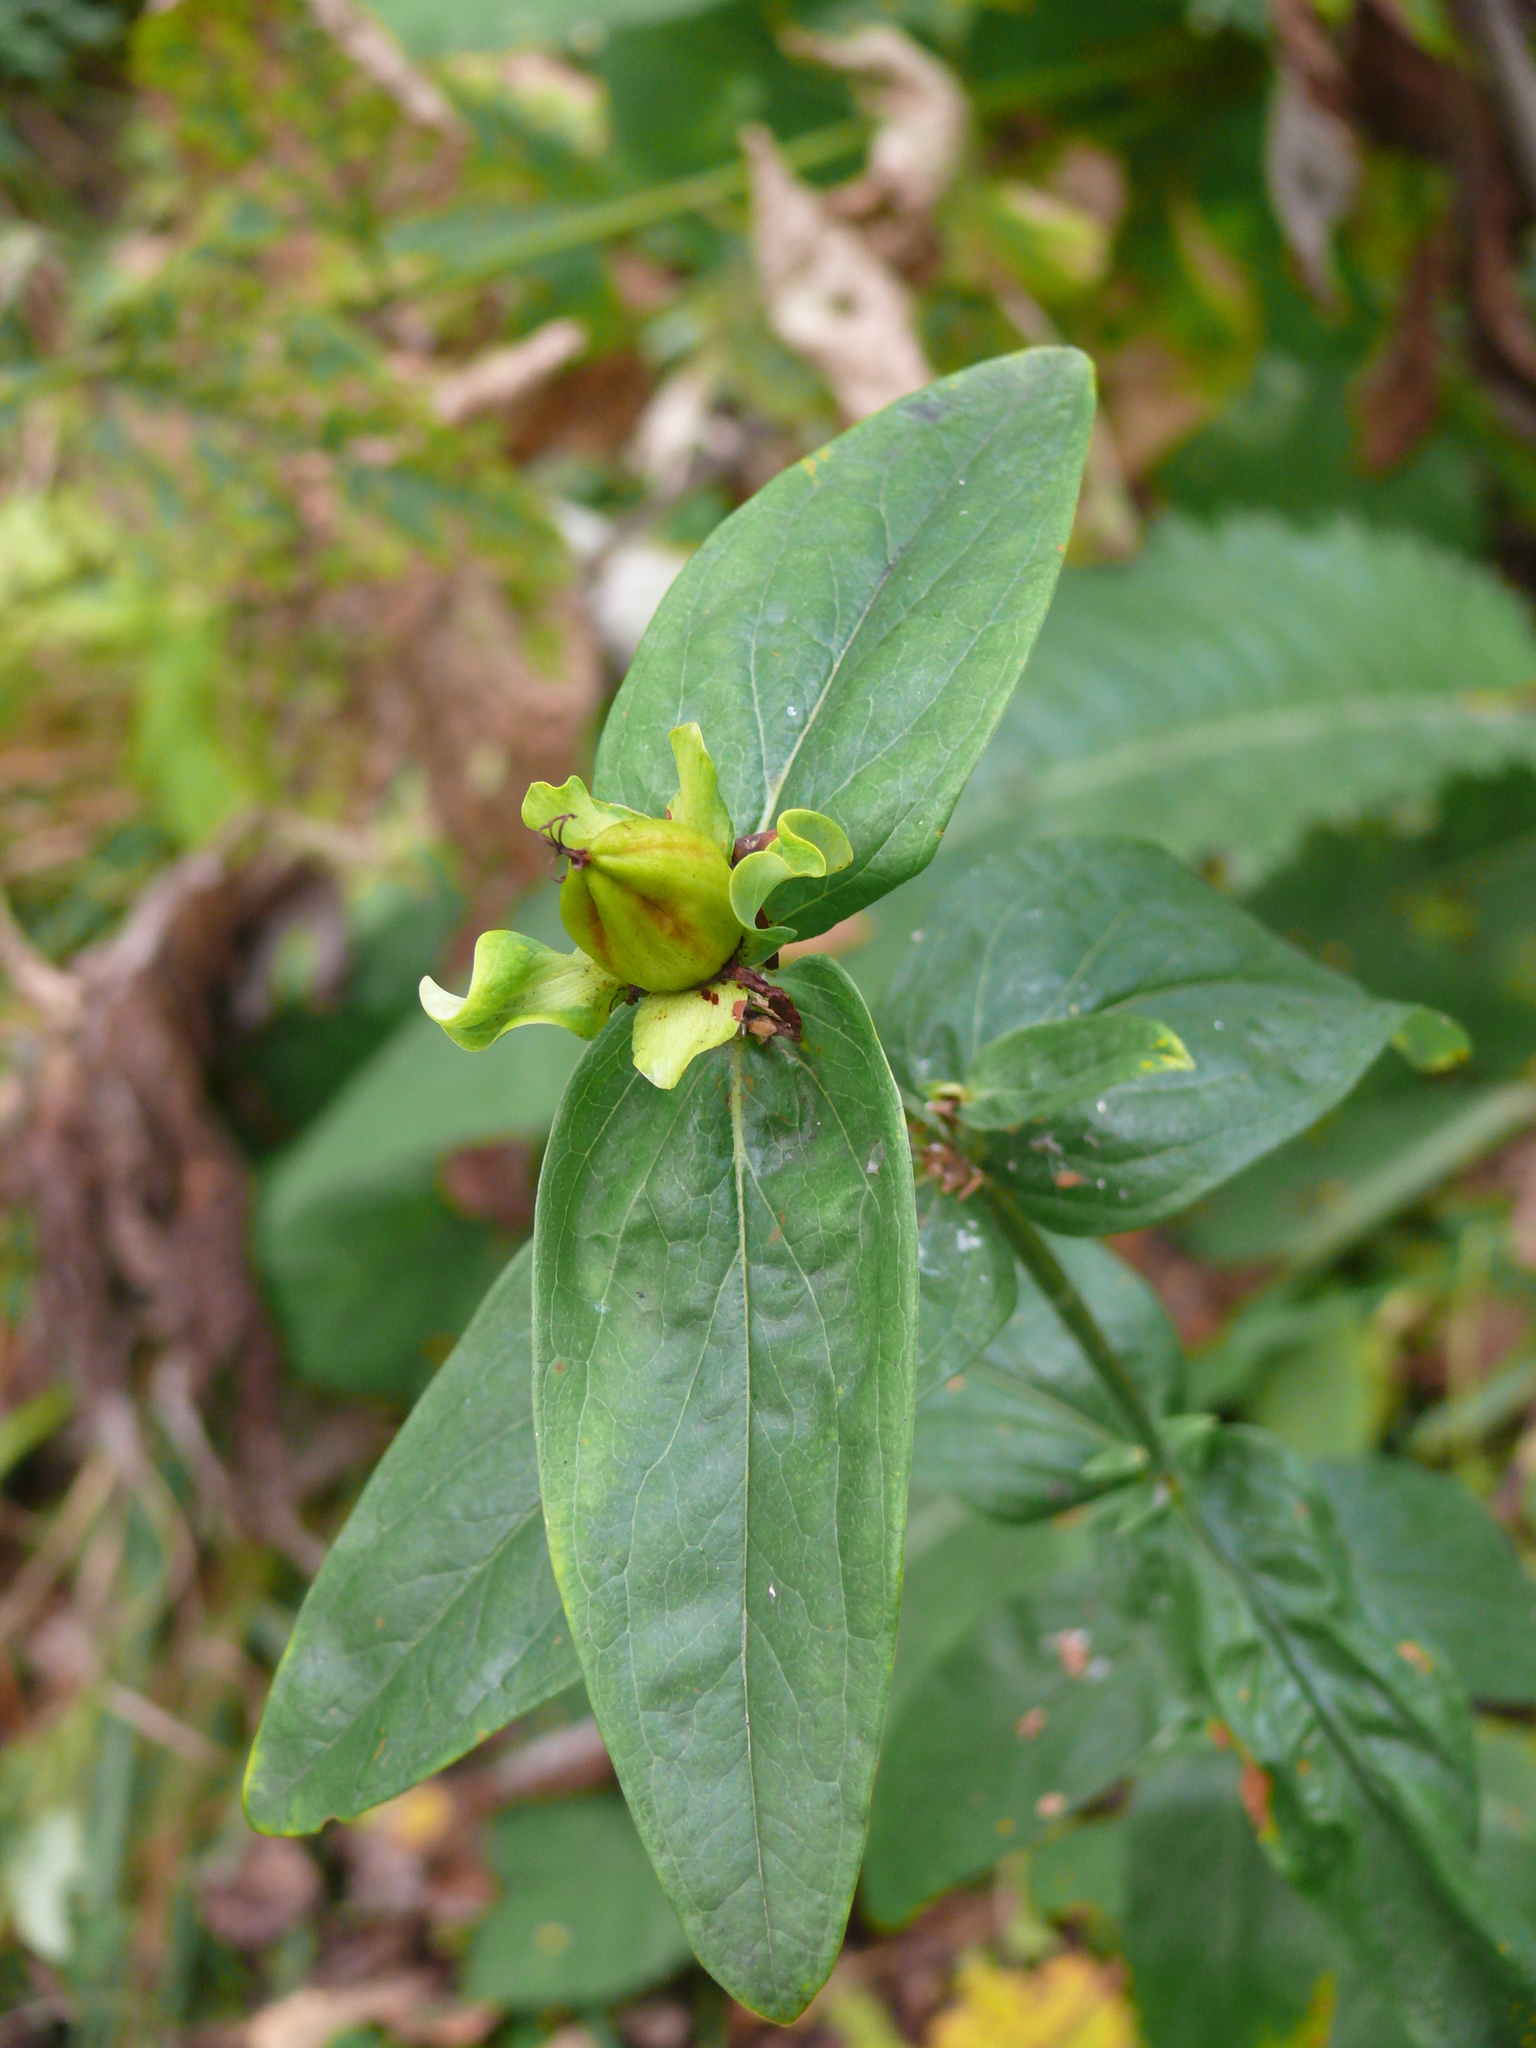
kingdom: Plantae
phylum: Tracheophyta
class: Magnoliopsida
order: Malpighiales
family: Hypericaceae
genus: Hypericum
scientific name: Hypericum ascyron
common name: Giant st. john's-wort
